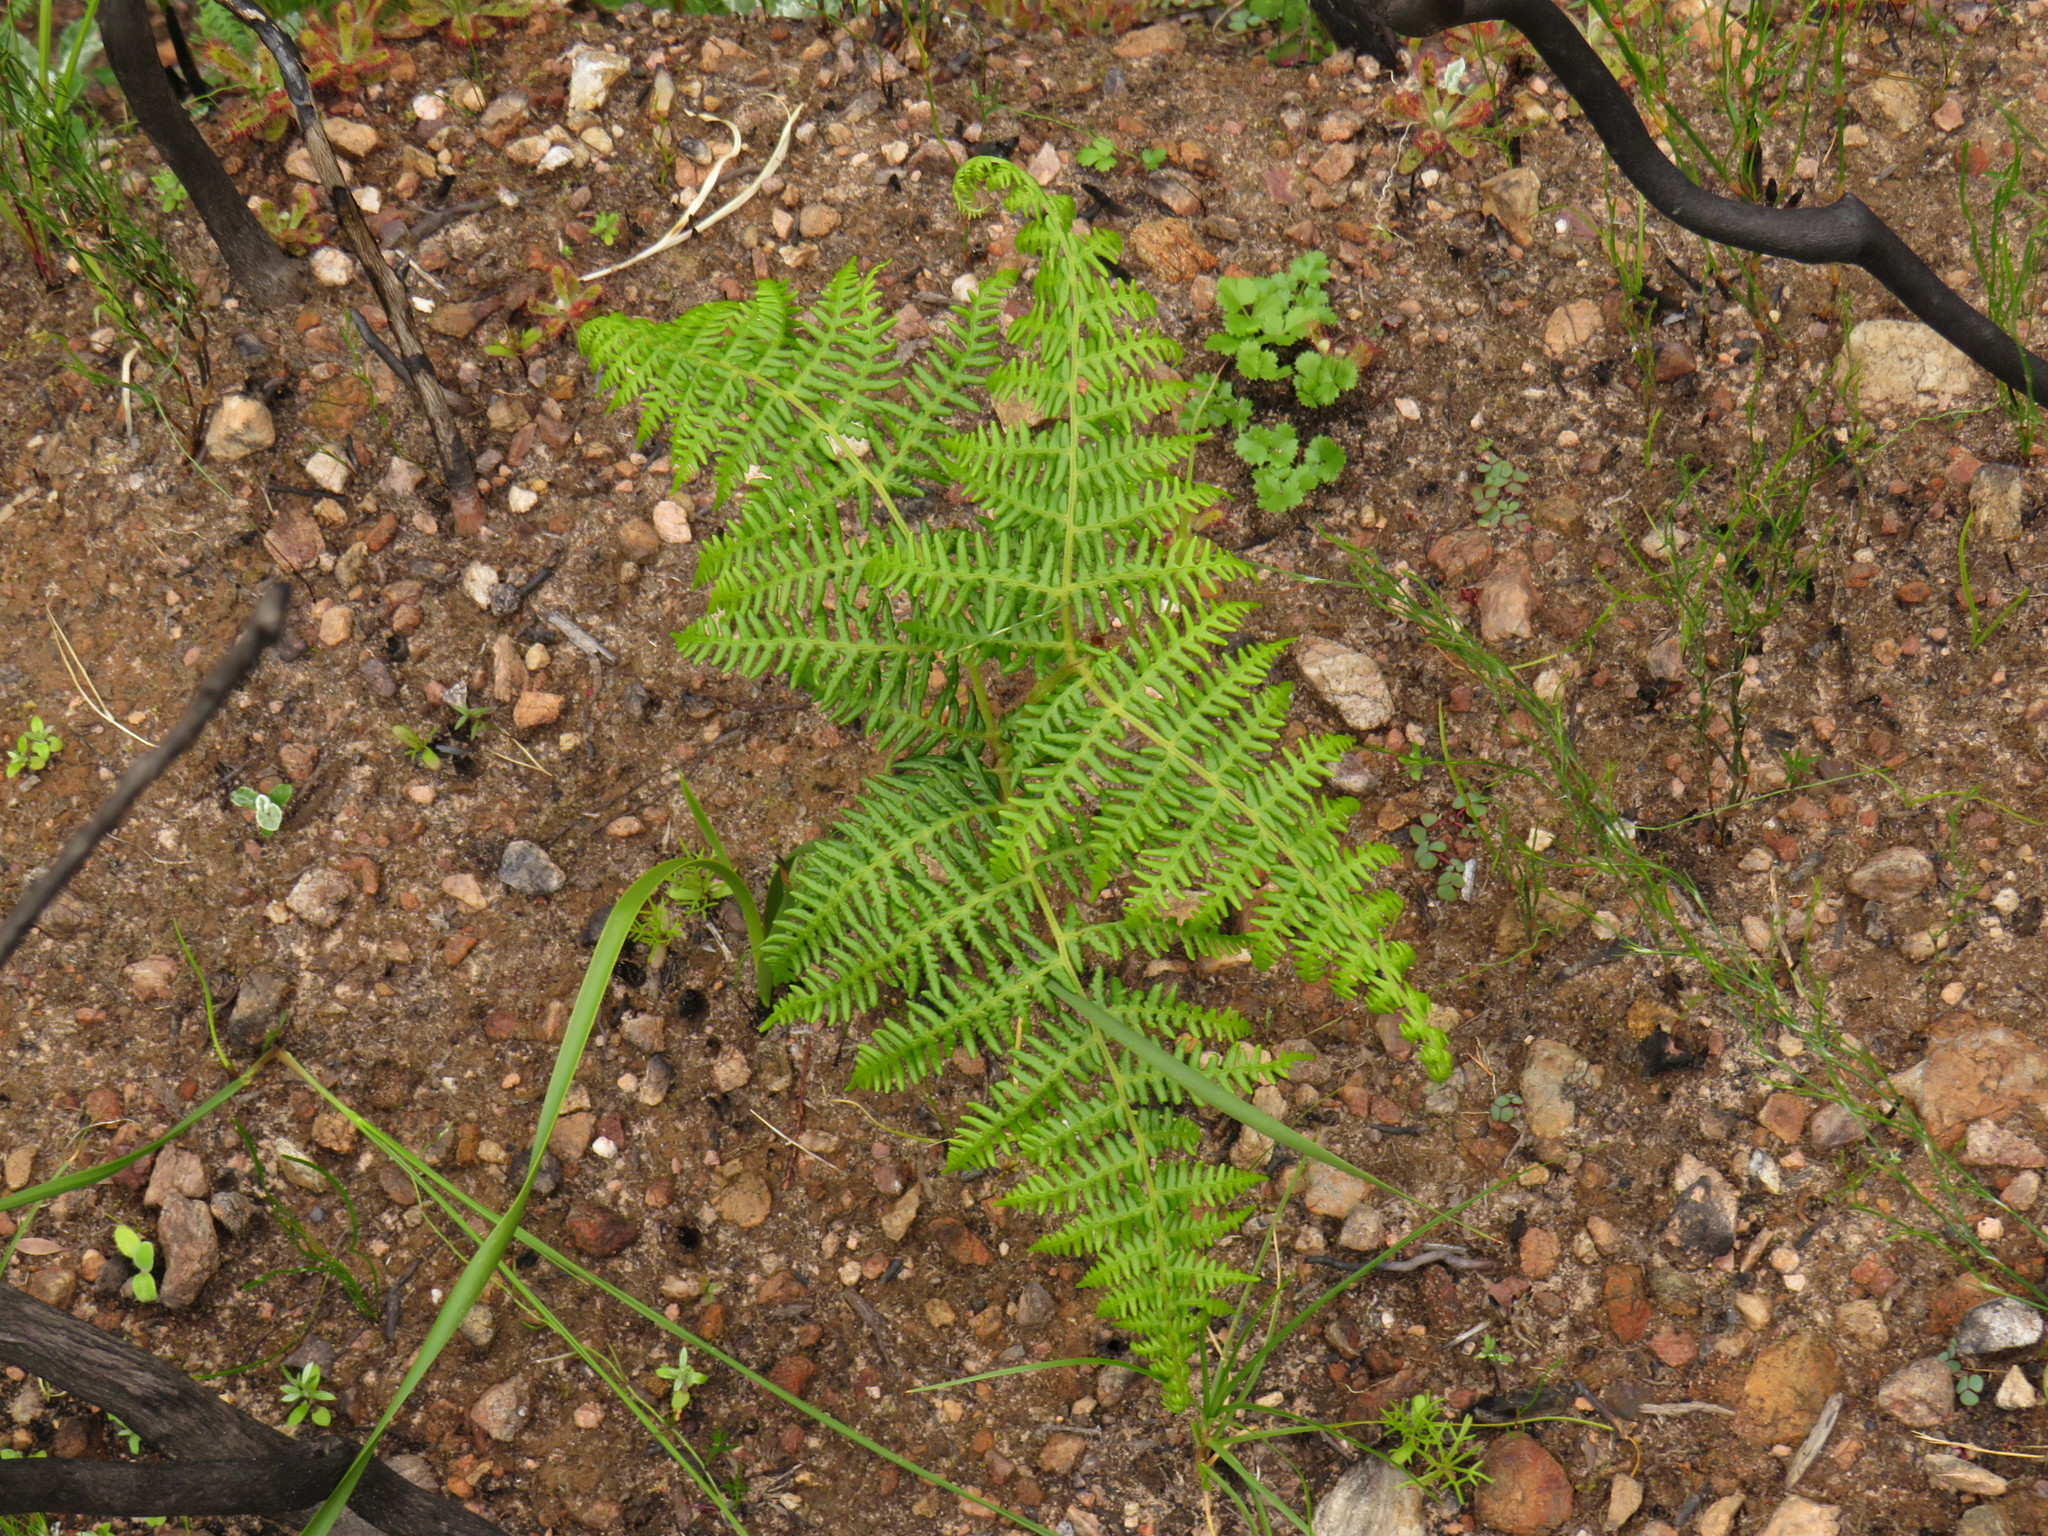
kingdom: Plantae
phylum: Tracheophyta
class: Polypodiopsida
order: Polypodiales
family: Dennstaedtiaceae
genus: Pteridium
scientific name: Pteridium aquilinum
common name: Bracken
